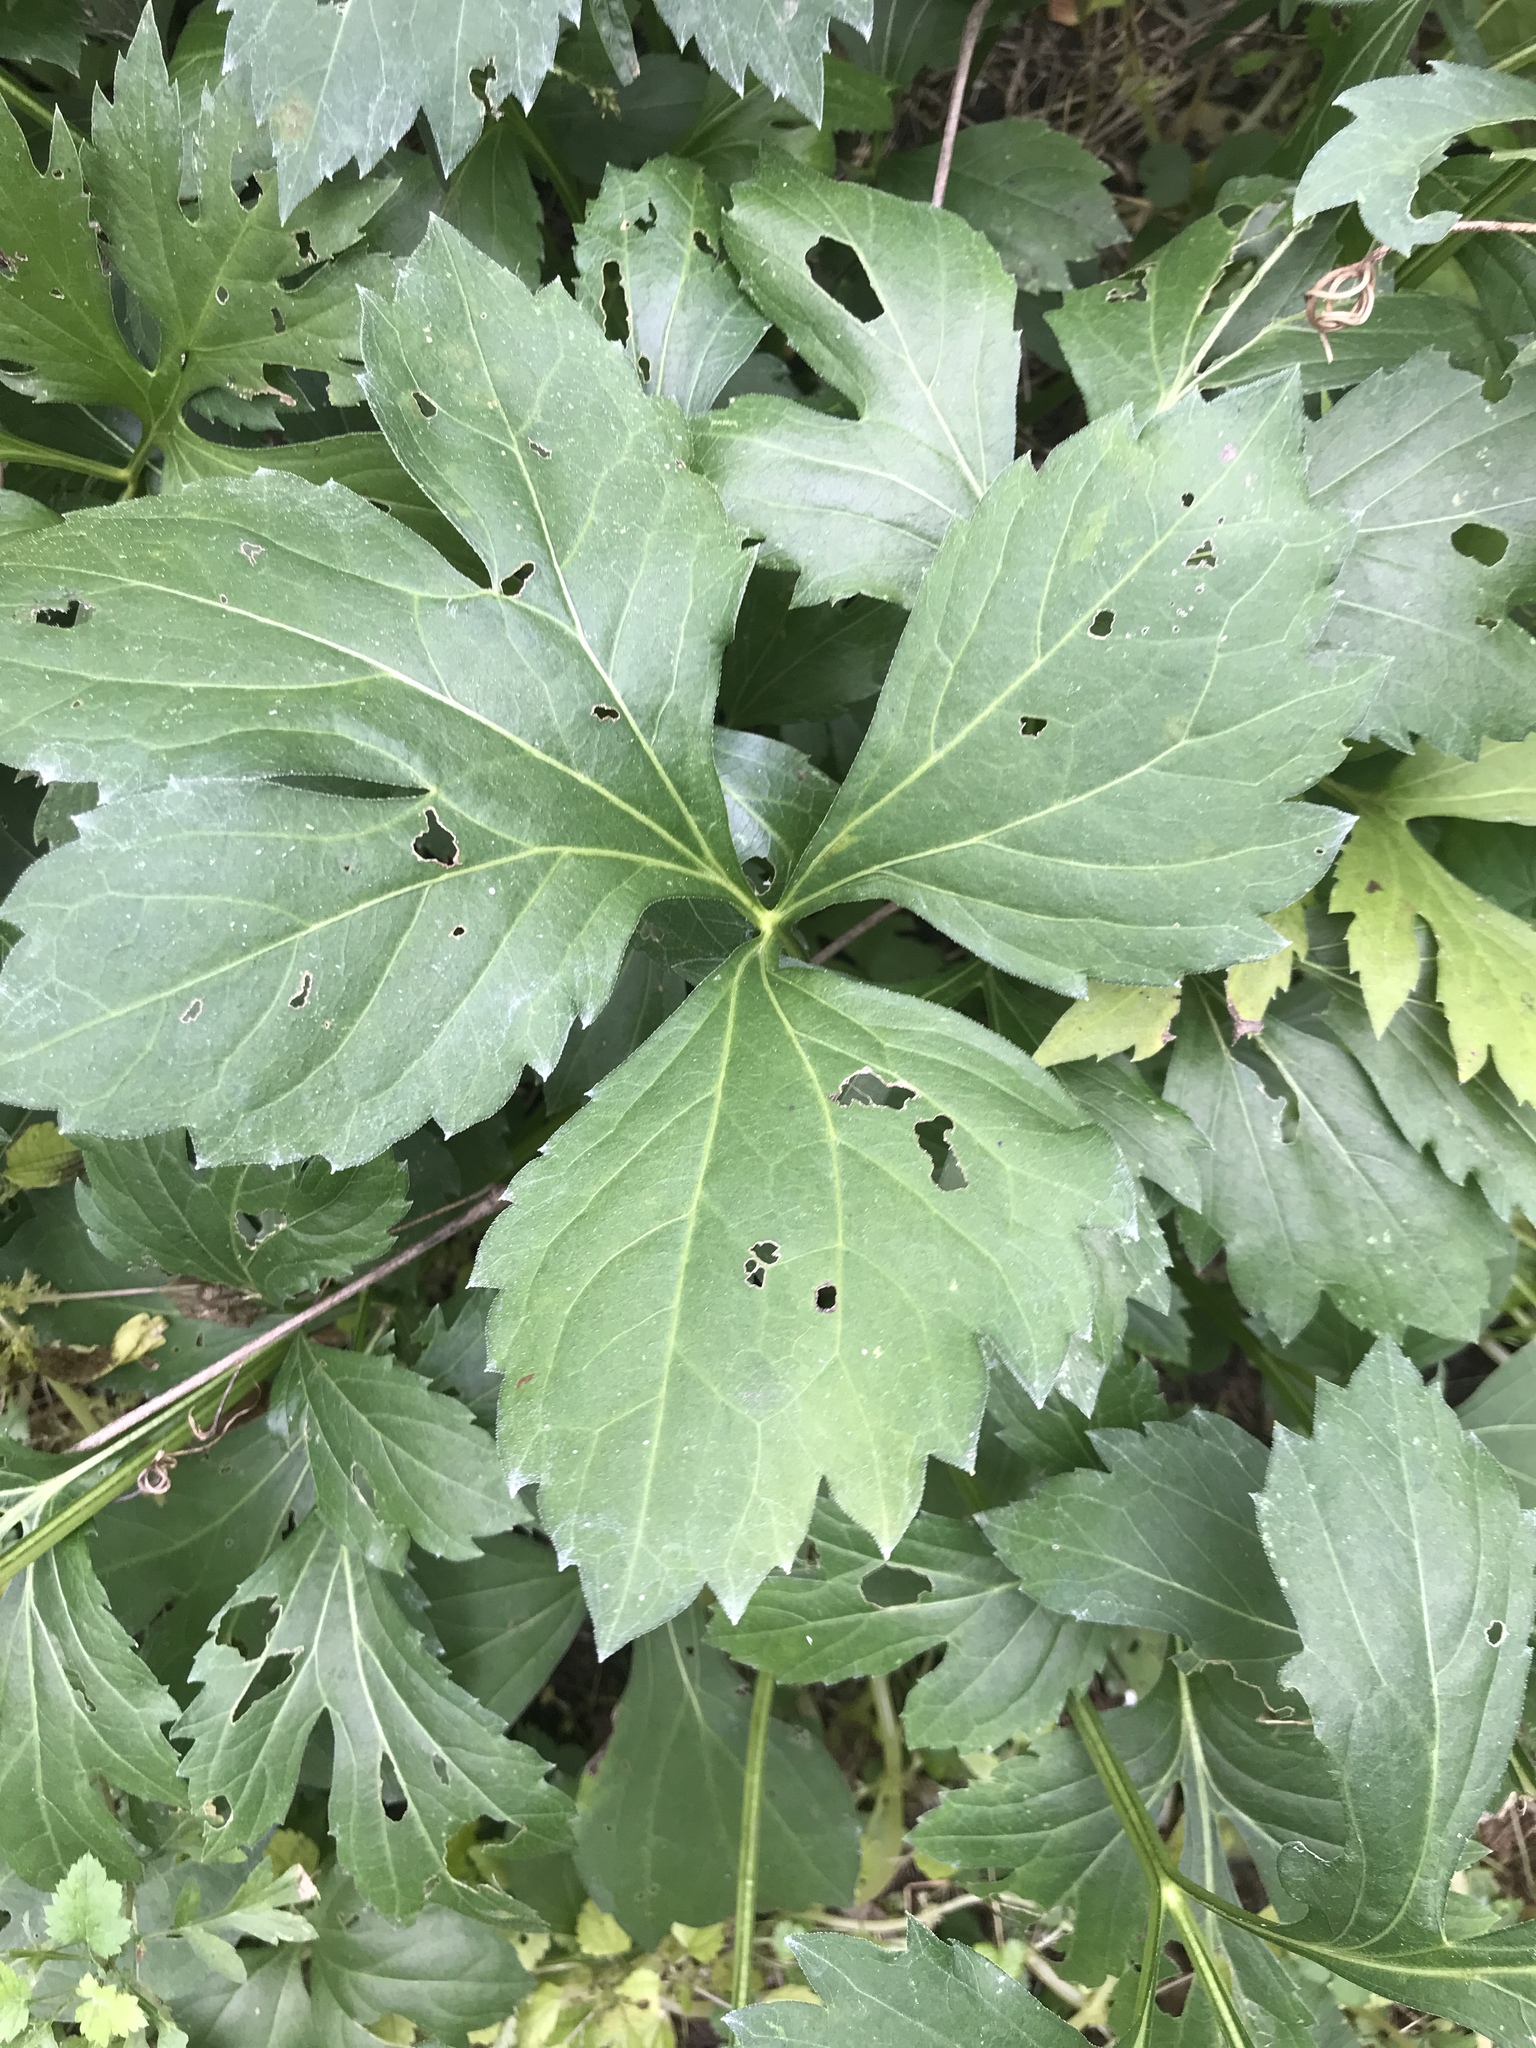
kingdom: Plantae
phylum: Tracheophyta
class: Magnoliopsida
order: Asterales
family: Asteraceae
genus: Rudbeckia
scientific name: Rudbeckia laciniata
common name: Coneflower
